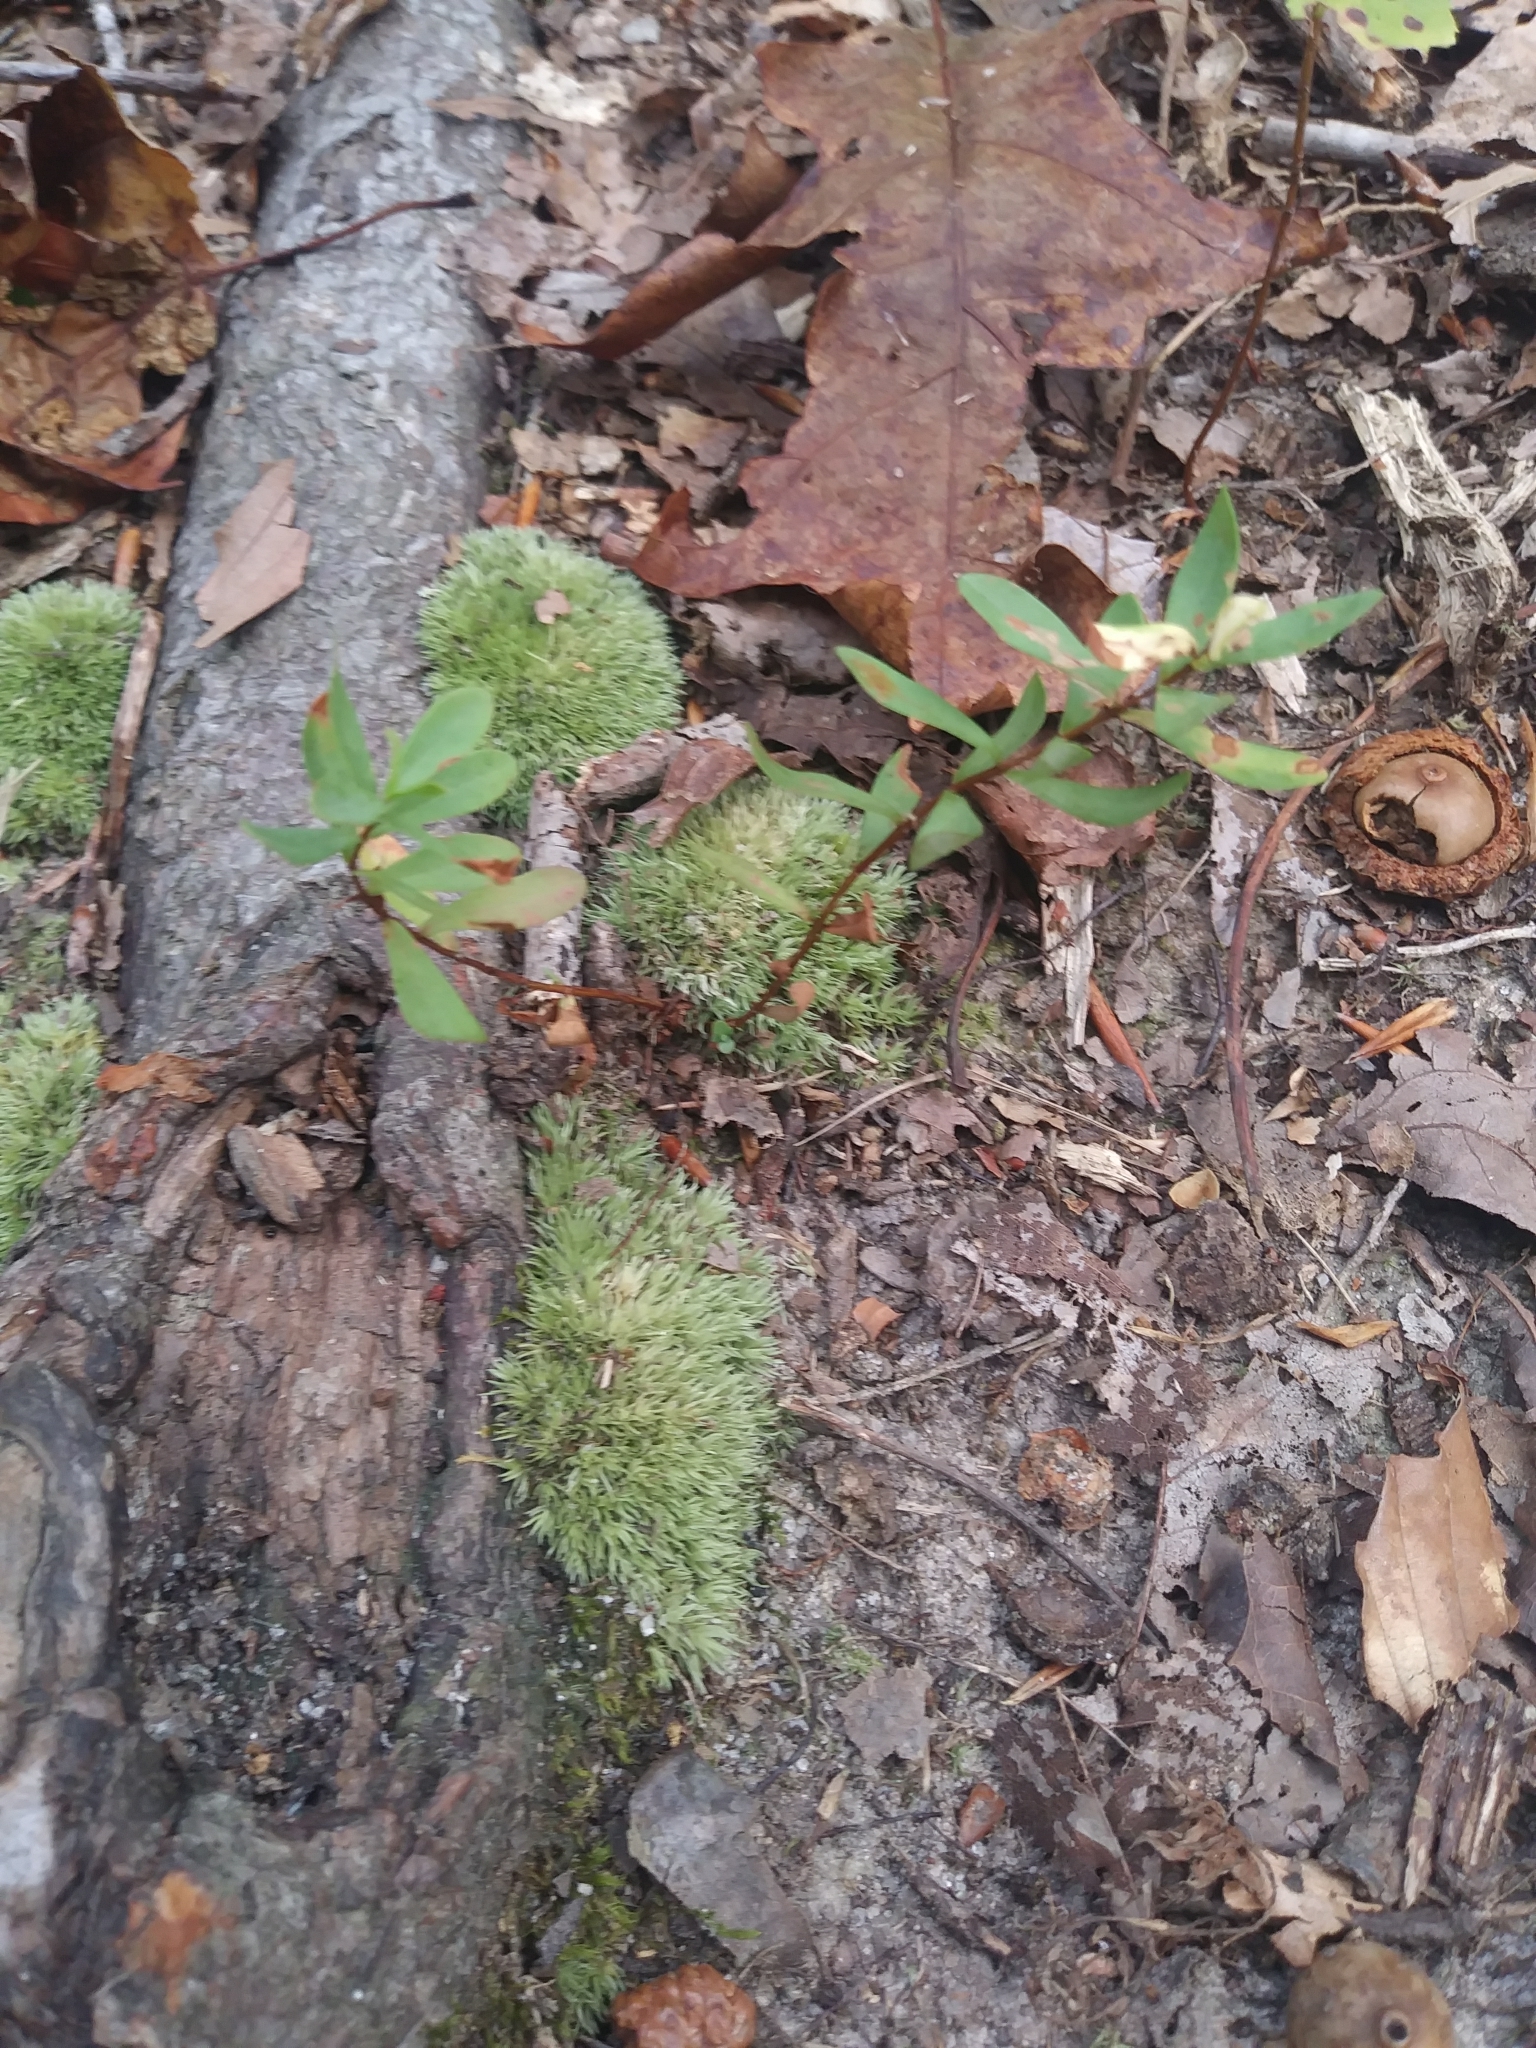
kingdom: Plantae
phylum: Tracheophyta
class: Magnoliopsida
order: Malpighiales
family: Hypericaceae
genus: Hypericum
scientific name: Hypericum hypericoides
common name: St. andrew's cross
